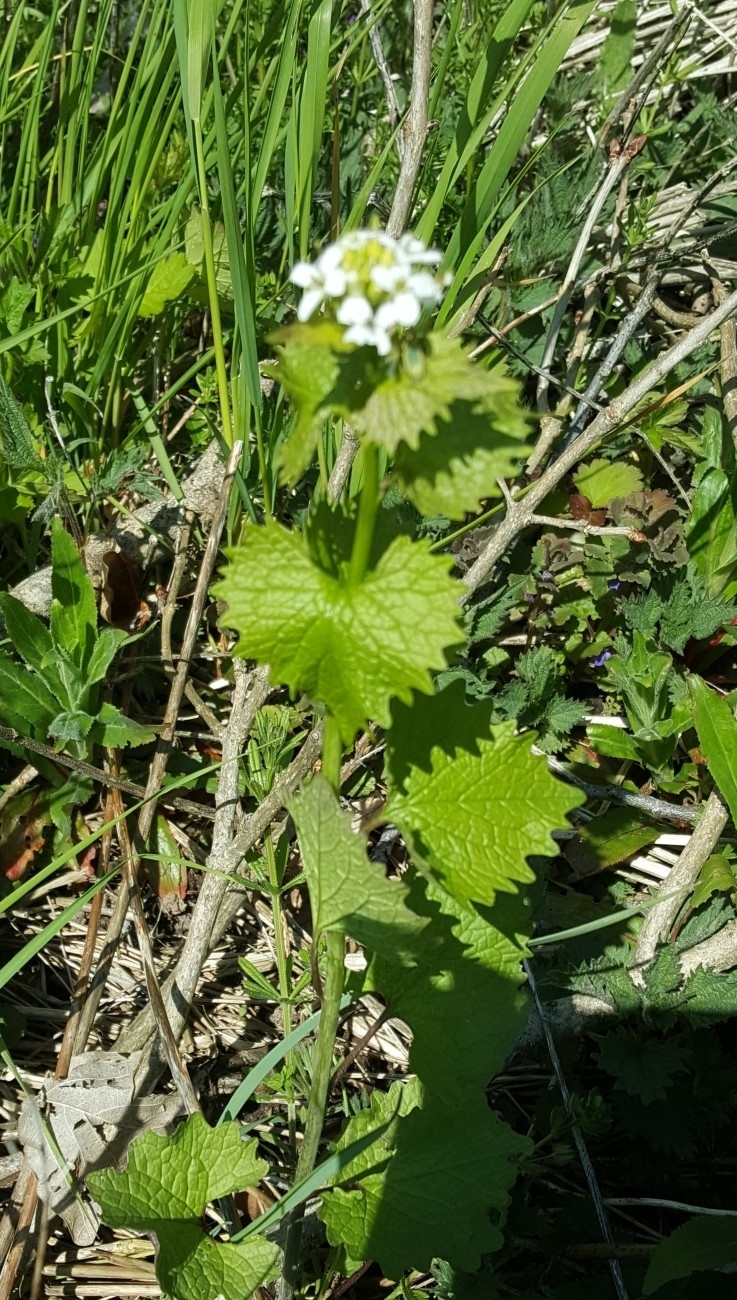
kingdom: Plantae
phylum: Tracheophyta
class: Magnoliopsida
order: Brassicales
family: Brassicaceae
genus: Alliaria
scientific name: Alliaria petiolata
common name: Garlic mustard
